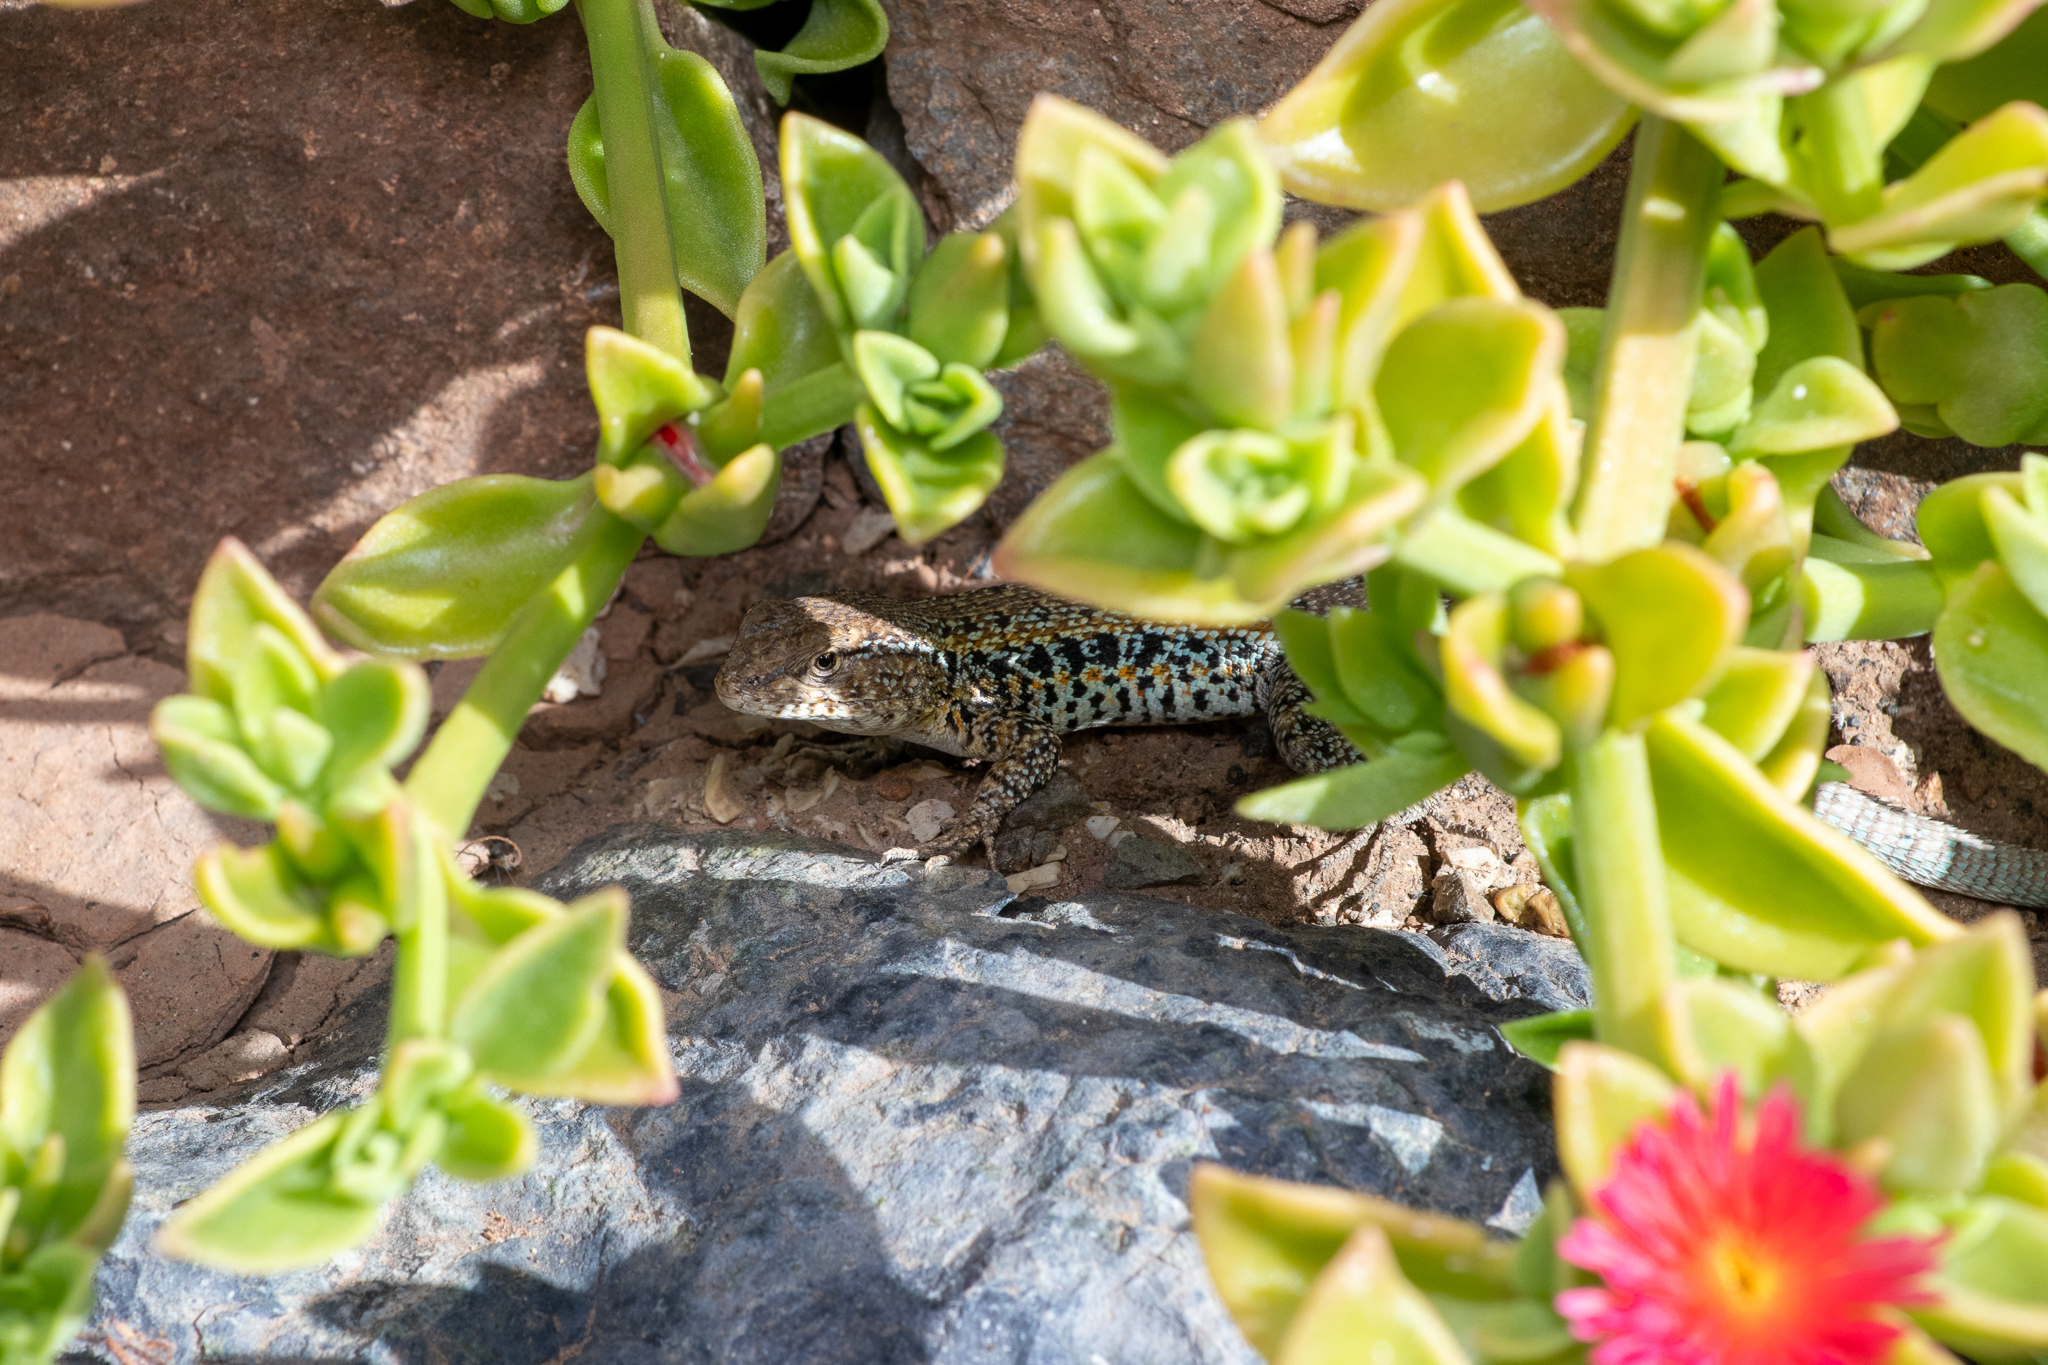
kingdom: Animalia
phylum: Chordata
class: Squamata
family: Liolaemidae
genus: Liolaemus
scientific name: Liolaemus platei
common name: Braided tree iguana
